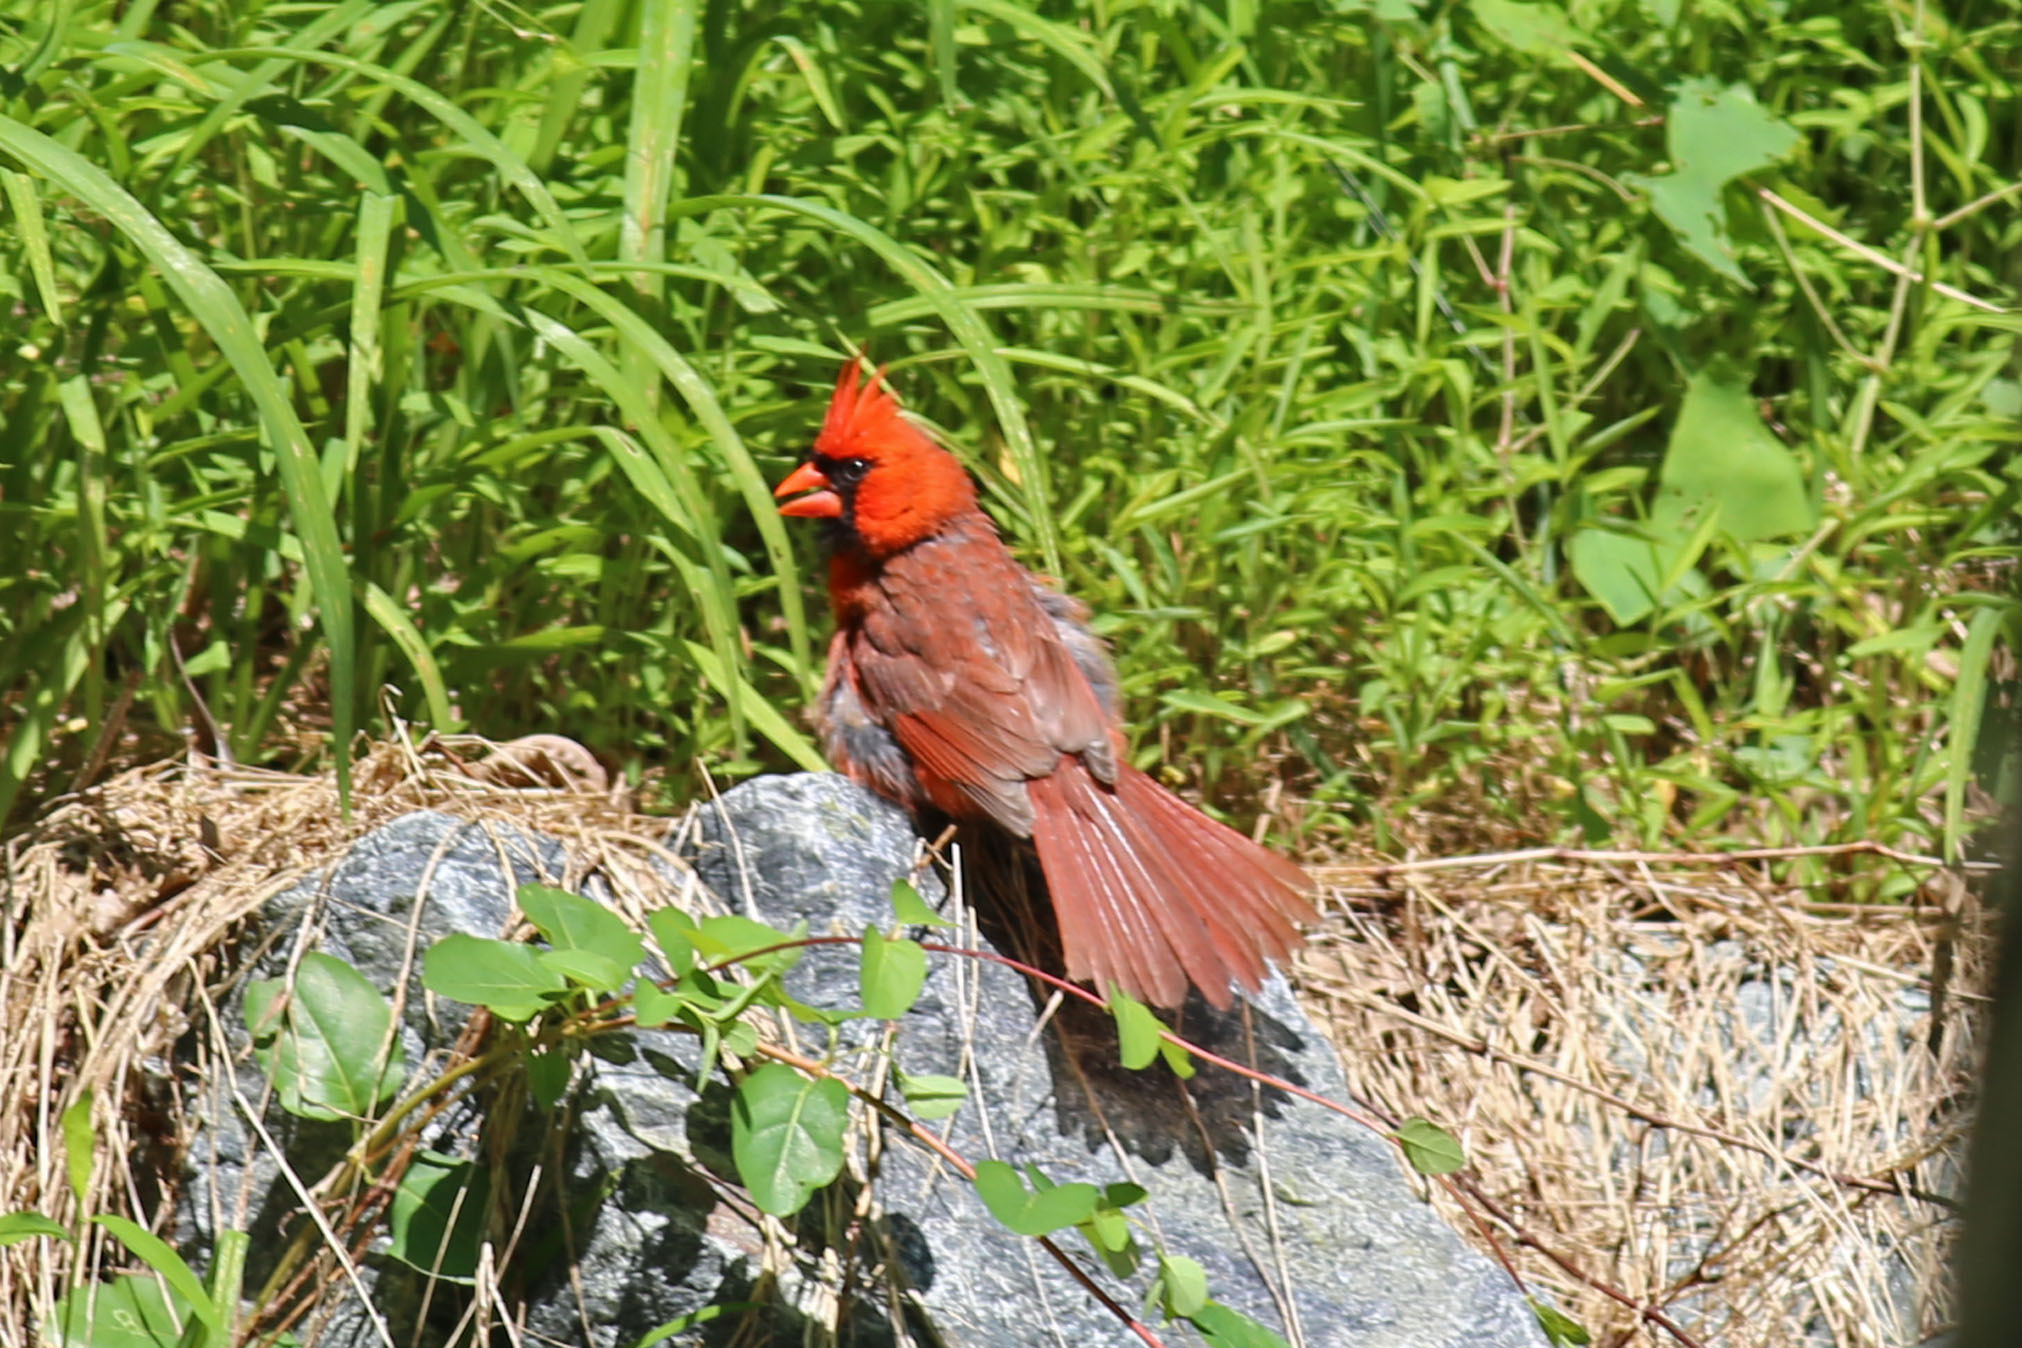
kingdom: Animalia
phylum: Chordata
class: Aves
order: Passeriformes
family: Cardinalidae
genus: Cardinalis
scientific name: Cardinalis cardinalis
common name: Northern cardinal
